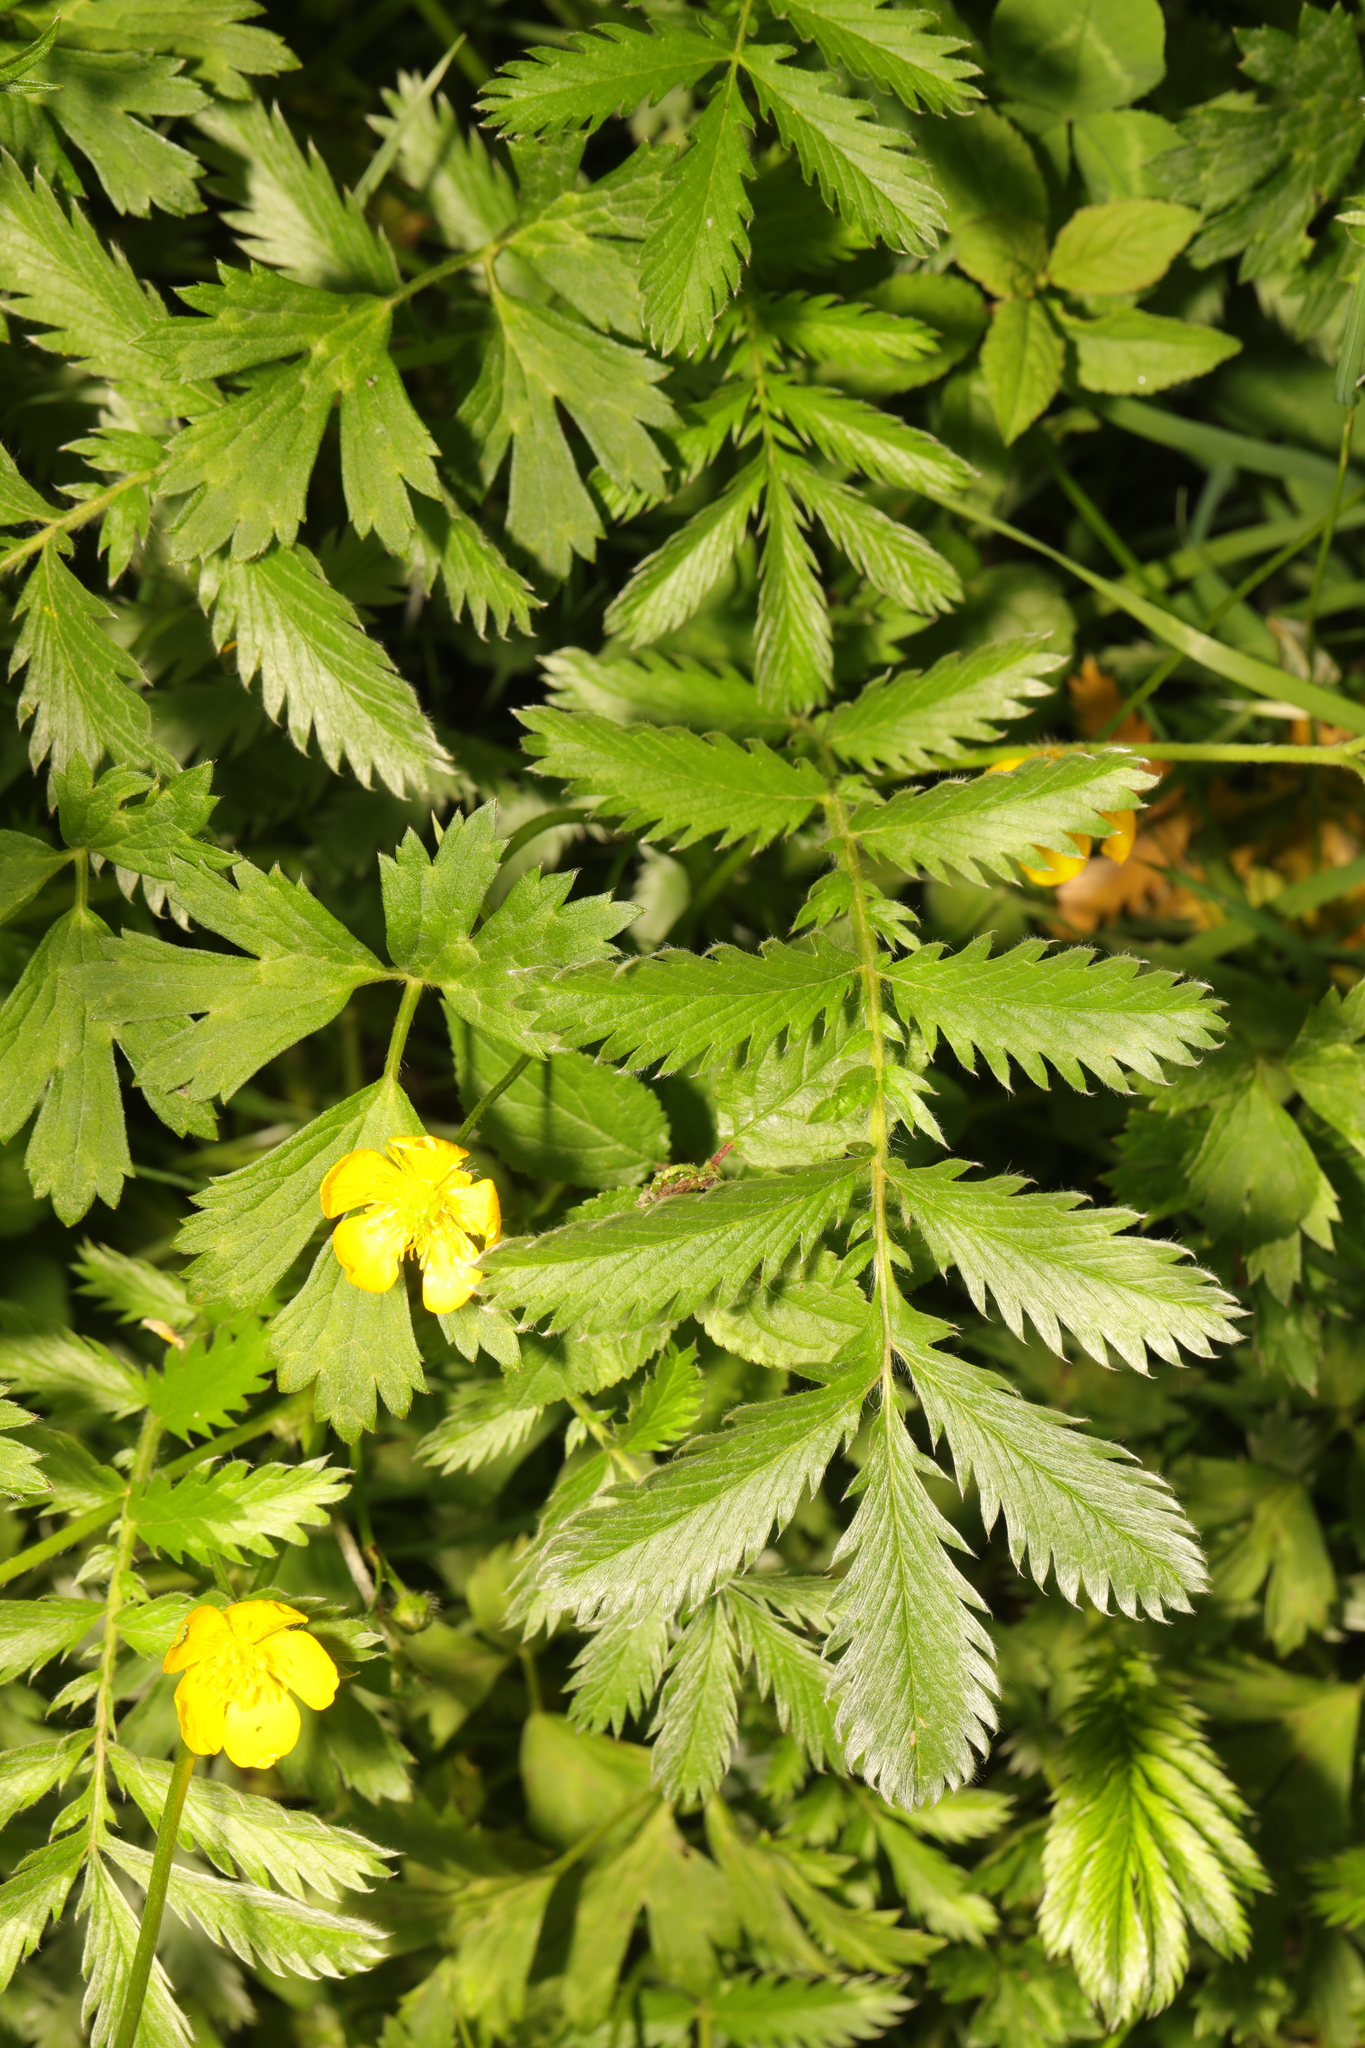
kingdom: Plantae
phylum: Tracheophyta
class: Magnoliopsida
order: Rosales
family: Rosaceae
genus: Argentina
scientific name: Argentina anserina
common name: Common silverweed
